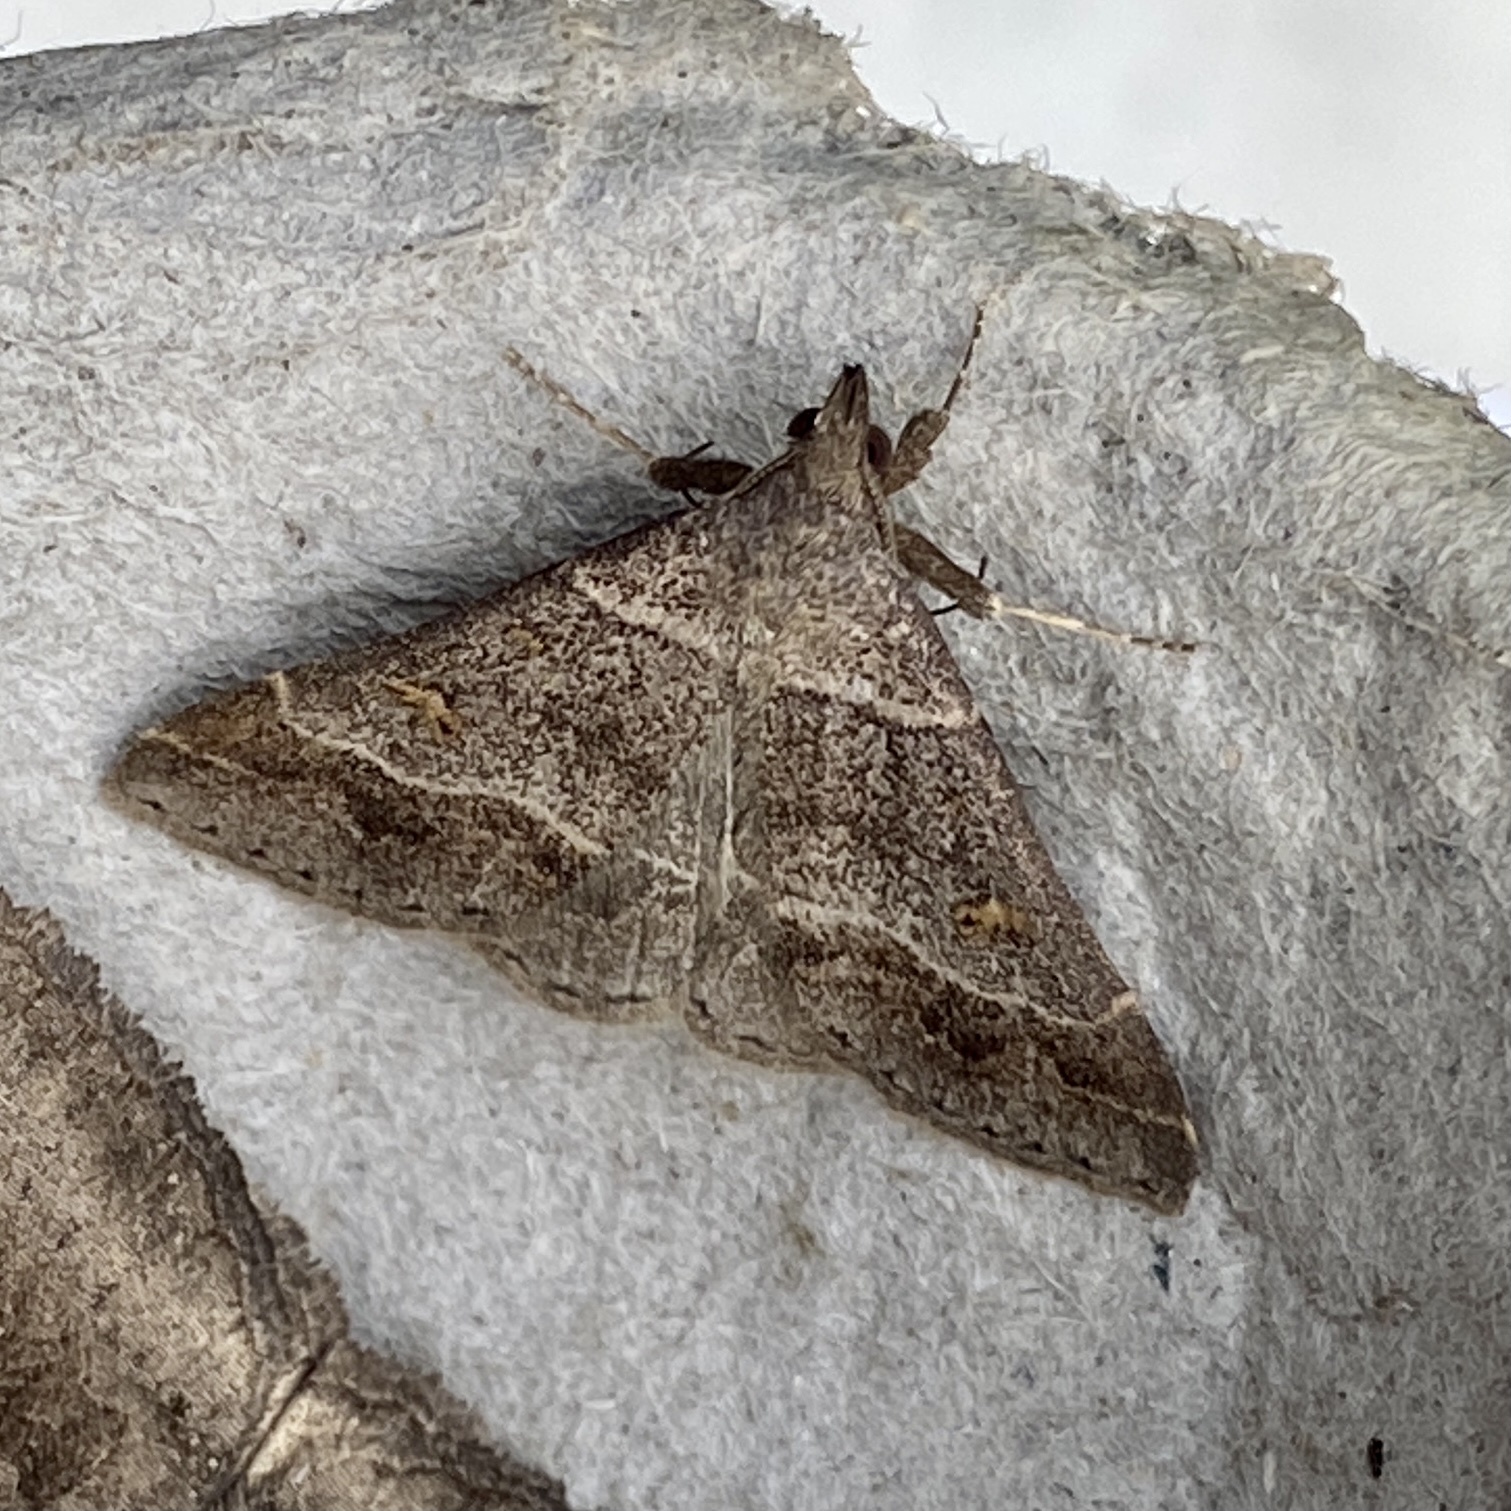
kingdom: Animalia
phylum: Arthropoda
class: Insecta
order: Lepidoptera
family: Erebidae
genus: Renia
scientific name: Renia flavipunctalis
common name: Yellow-spotted renia moth
